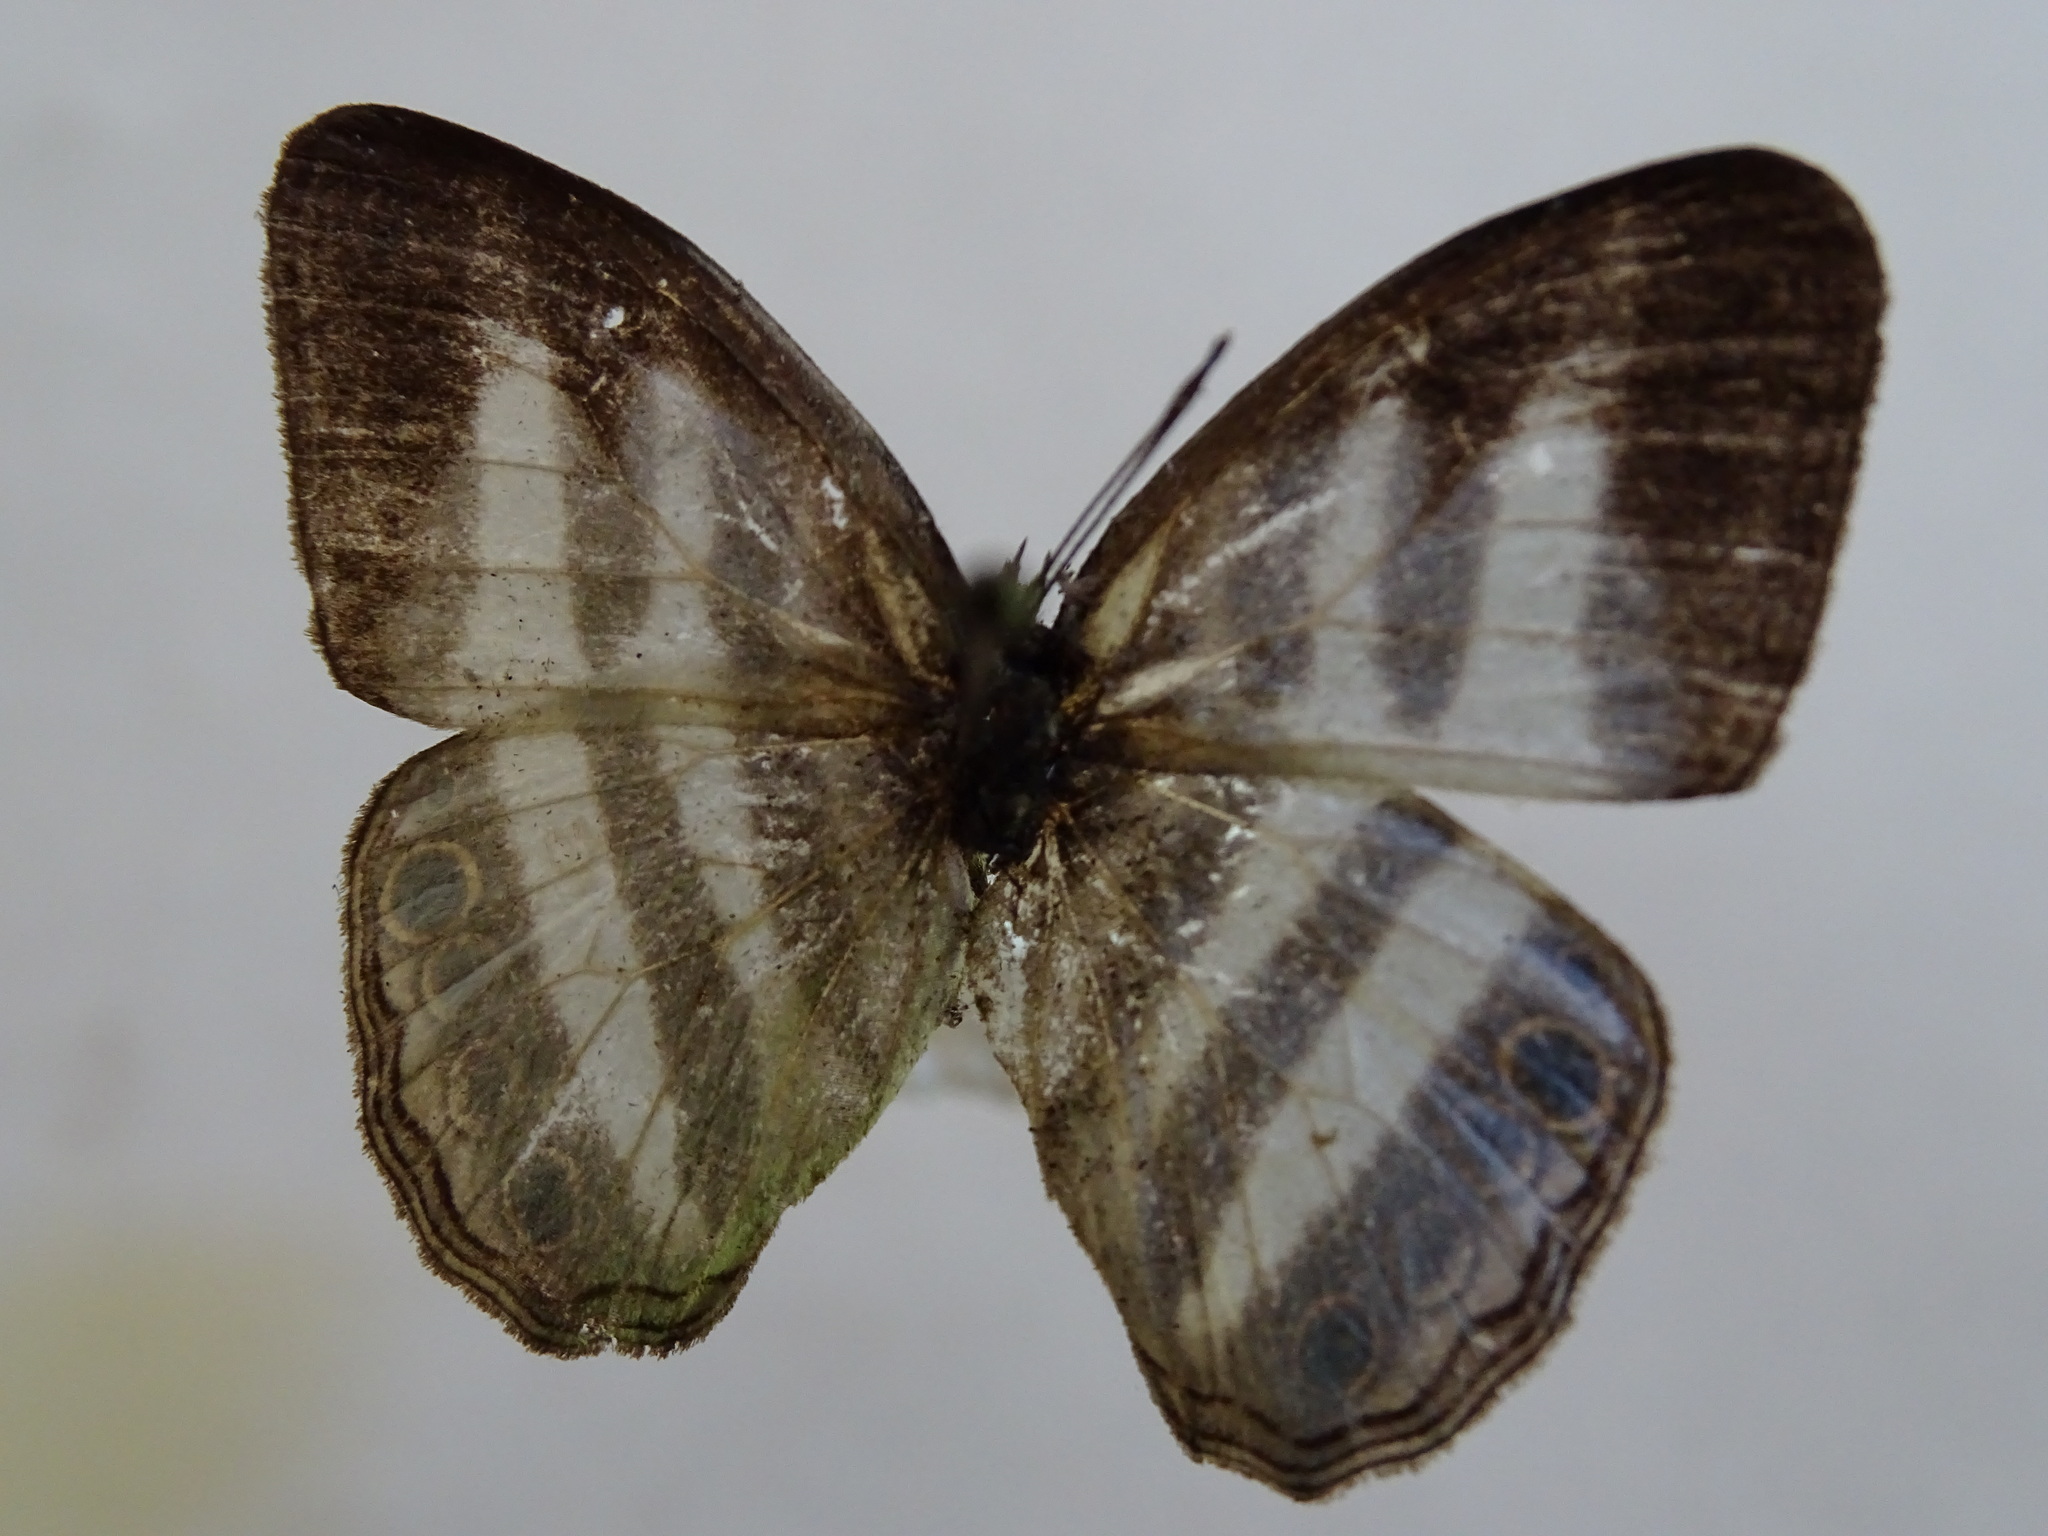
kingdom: Animalia
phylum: Arthropoda
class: Insecta
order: Lepidoptera
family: Nymphalidae
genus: Pareuptychia
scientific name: Pareuptychia hesione
